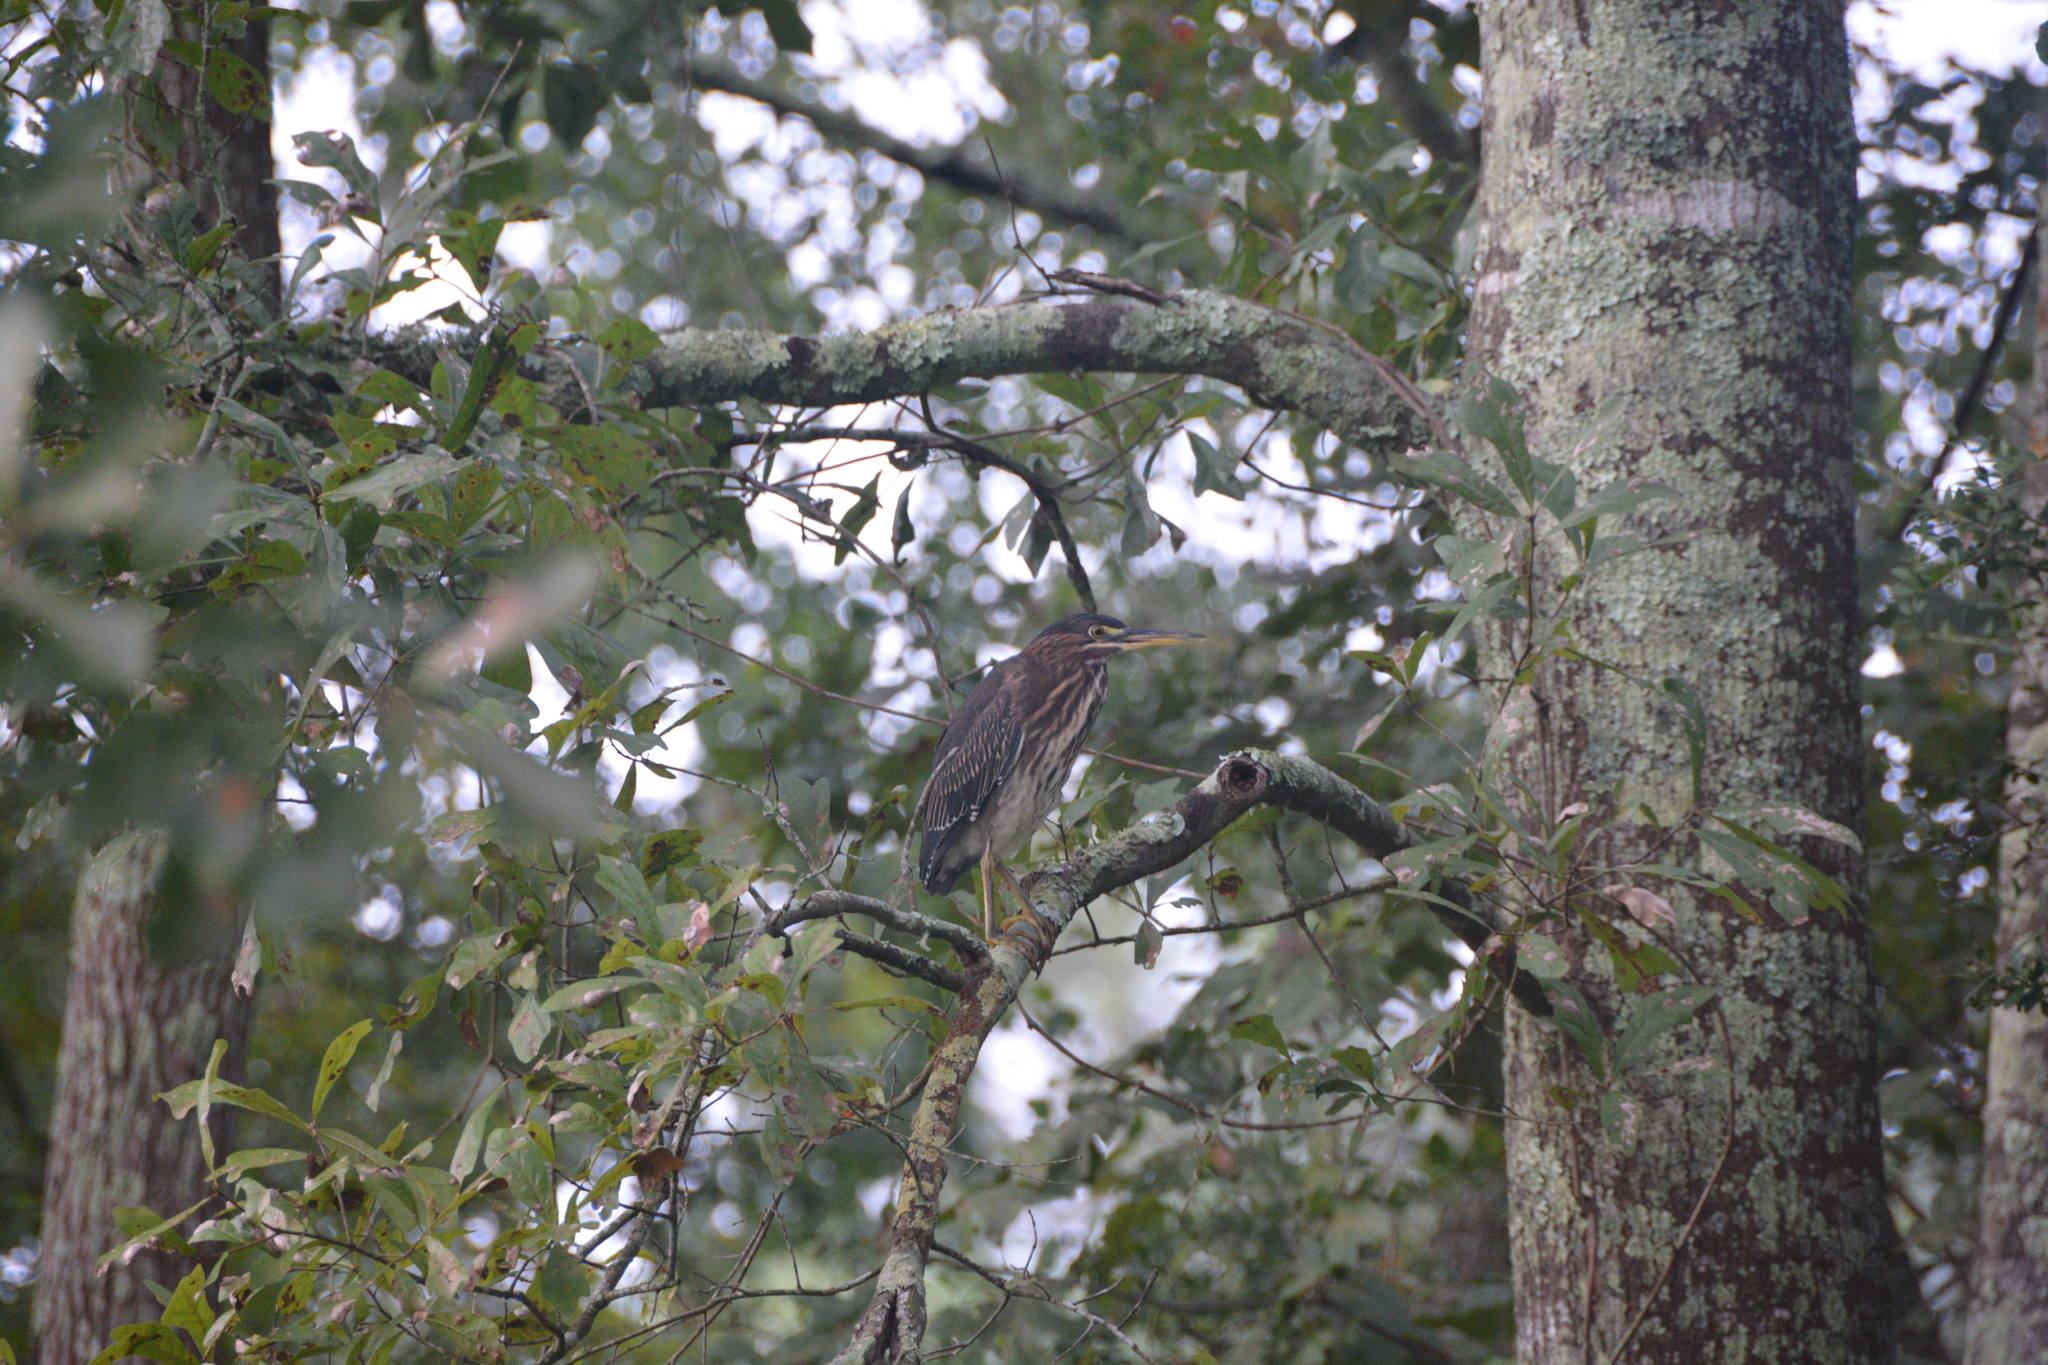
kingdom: Animalia
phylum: Chordata
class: Aves
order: Pelecaniformes
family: Ardeidae
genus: Butorides
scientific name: Butorides virescens
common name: Green heron
